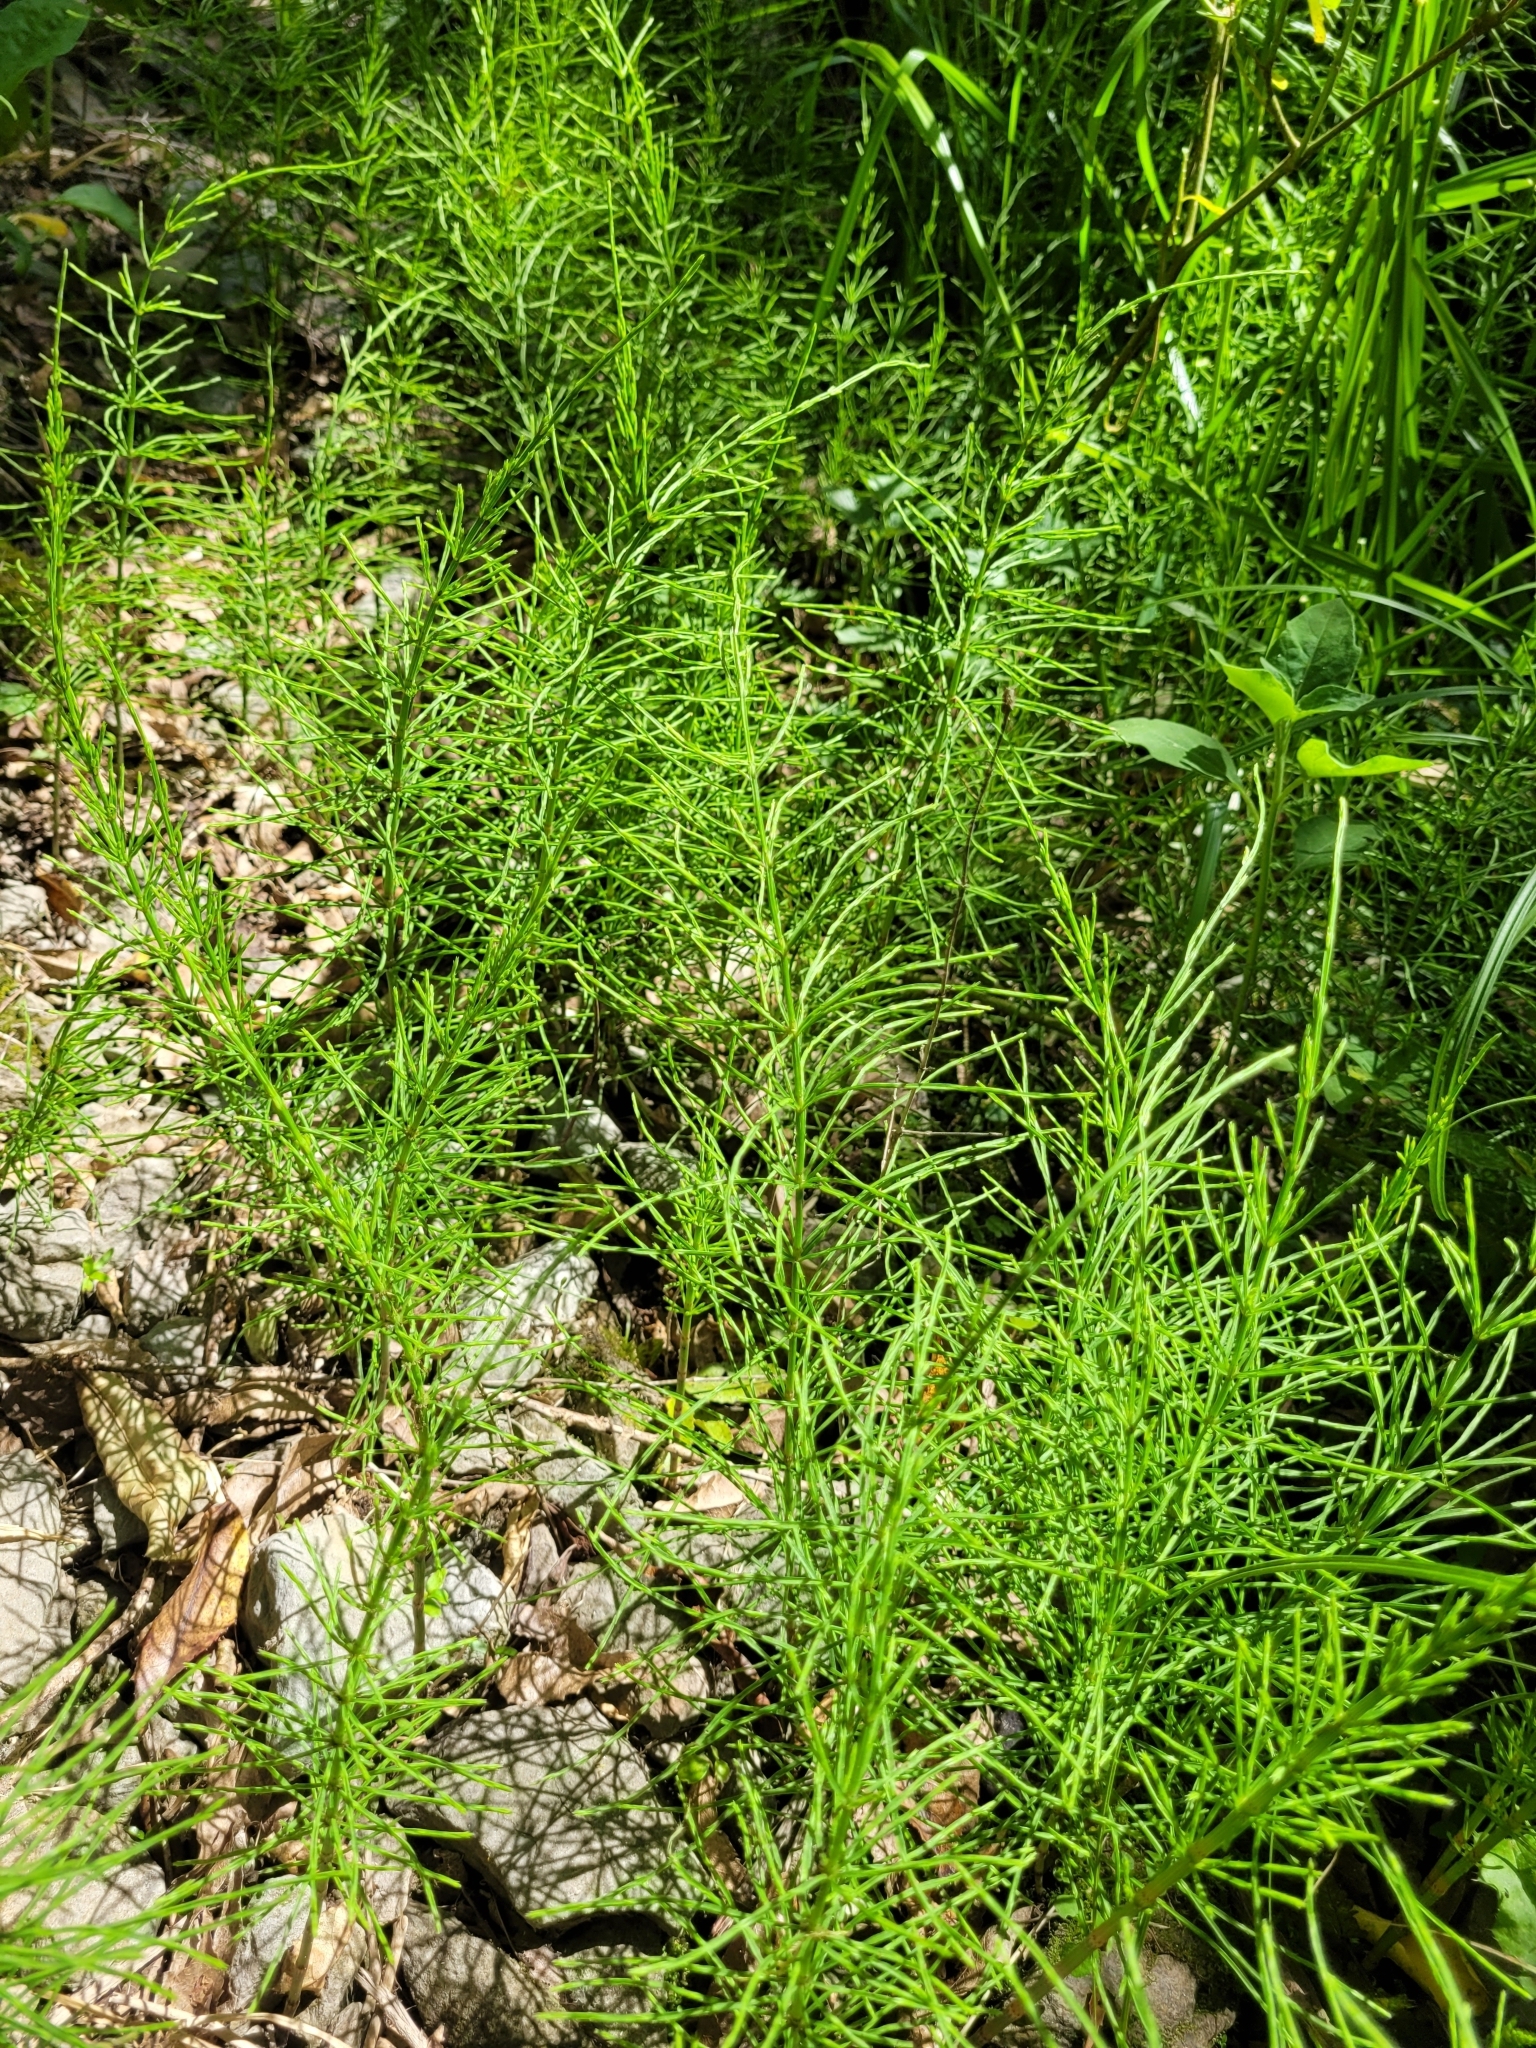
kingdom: Plantae
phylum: Tracheophyta
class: Polypodiopsida
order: Equisetales
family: Equisetaceae
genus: Equisetum
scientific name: Equisetum arvense
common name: Field horsetail
